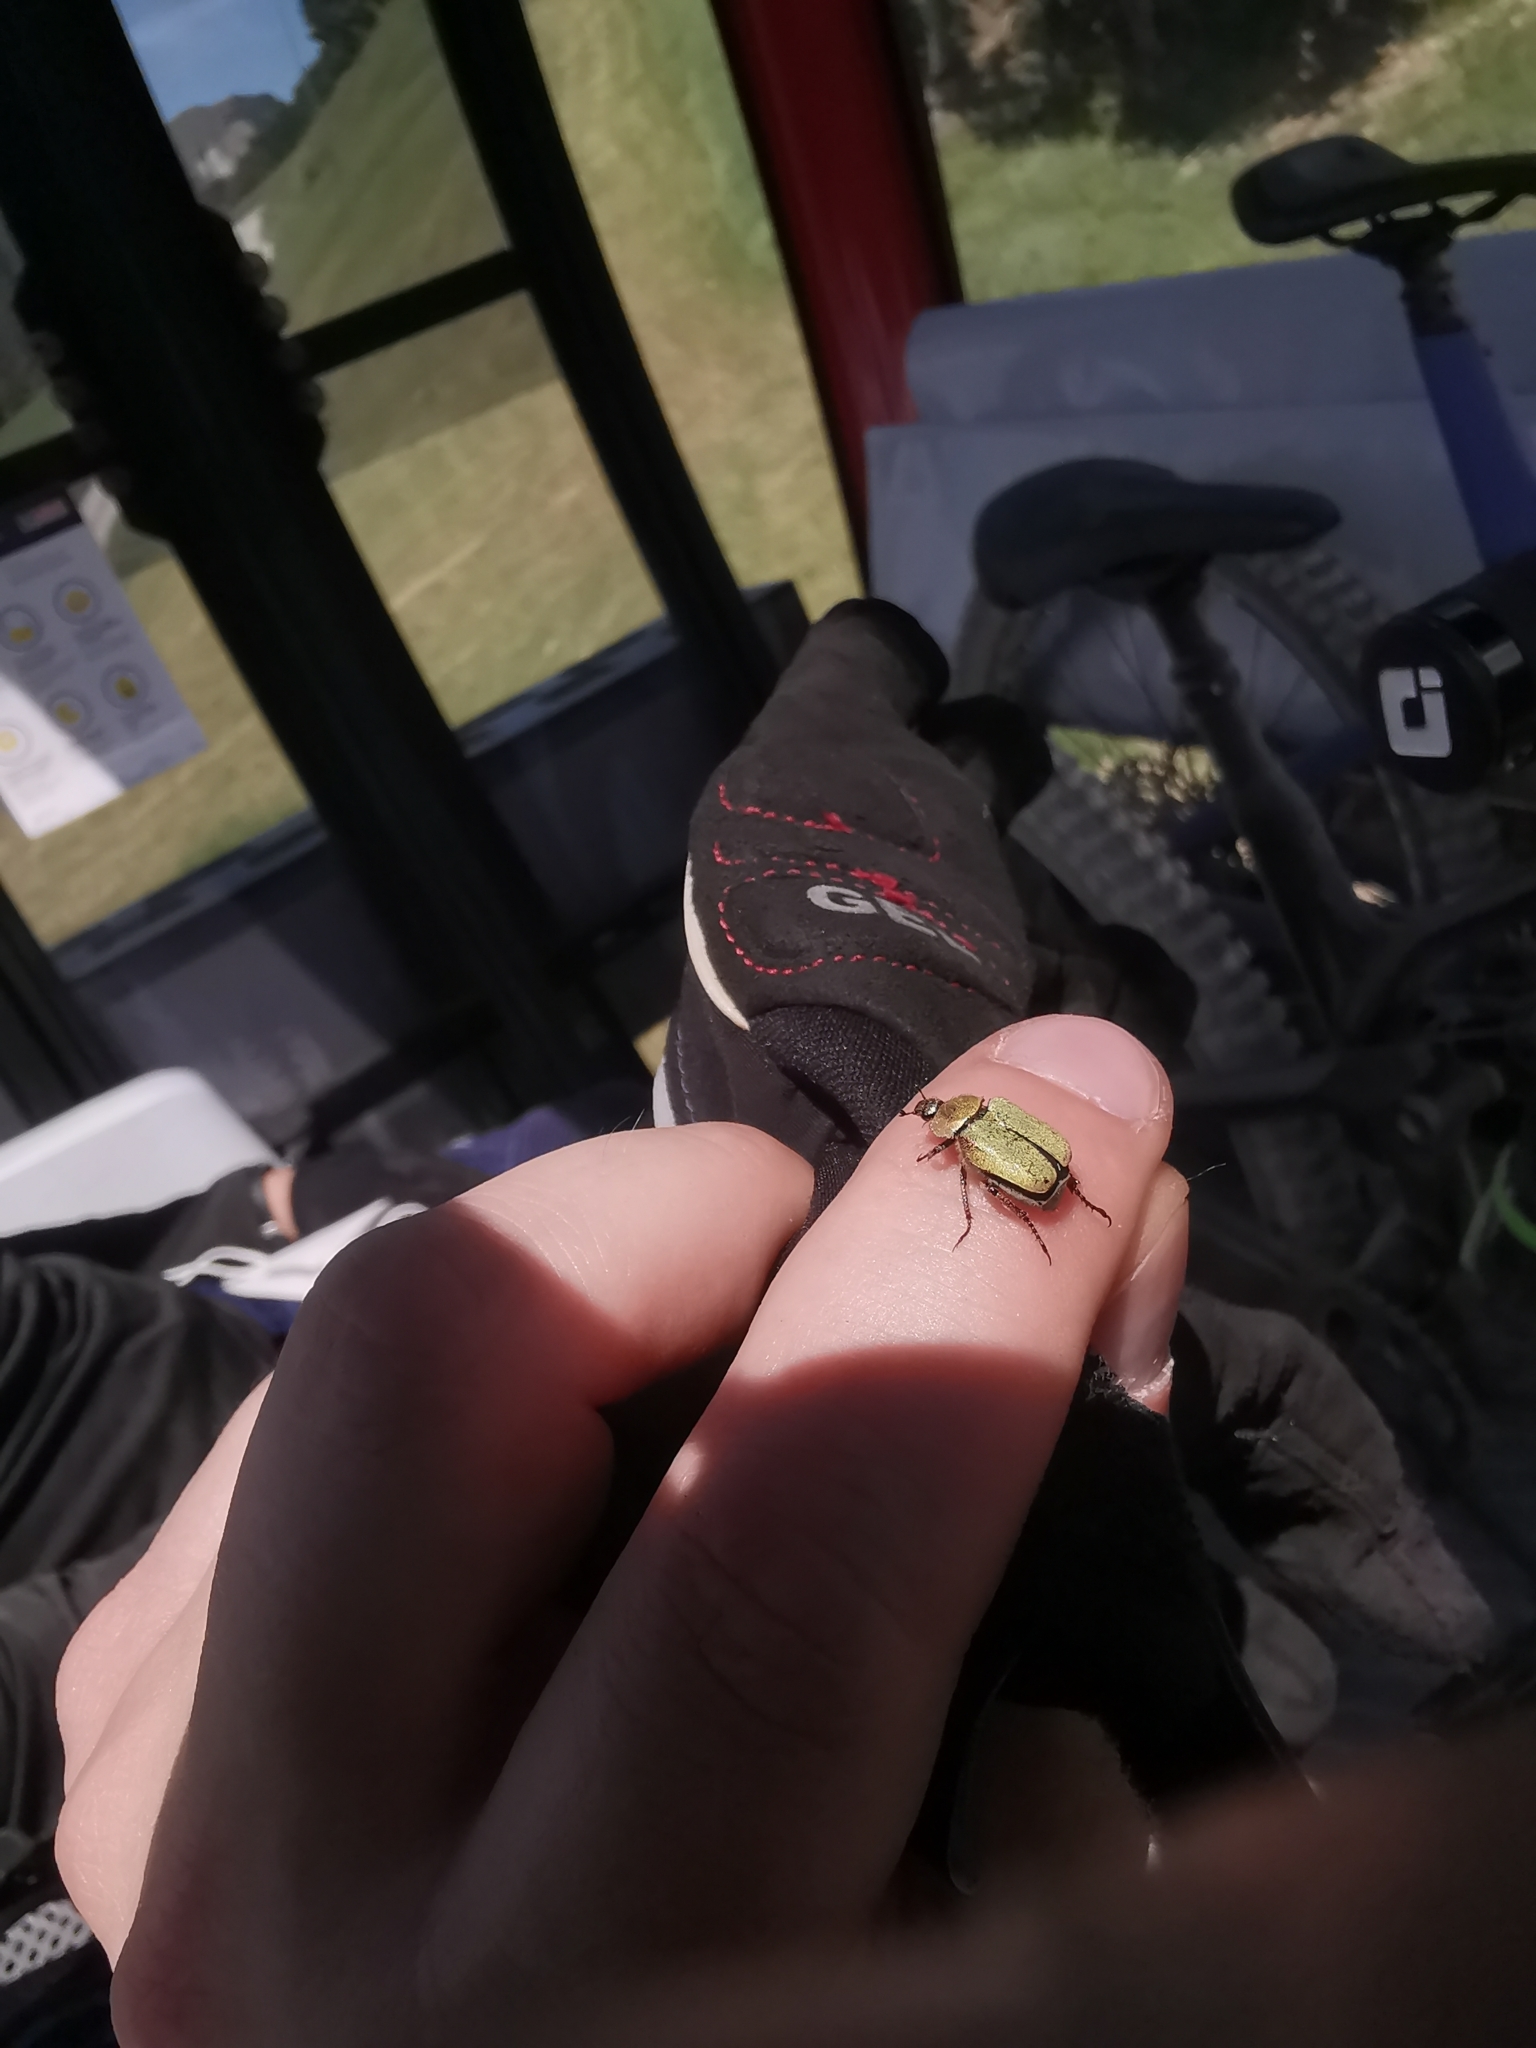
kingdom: Animalia
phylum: Arthropoda
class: Insecta
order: Coleoptera
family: Scarabaeidae
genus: Hoplia
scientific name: Hoplia argentea
